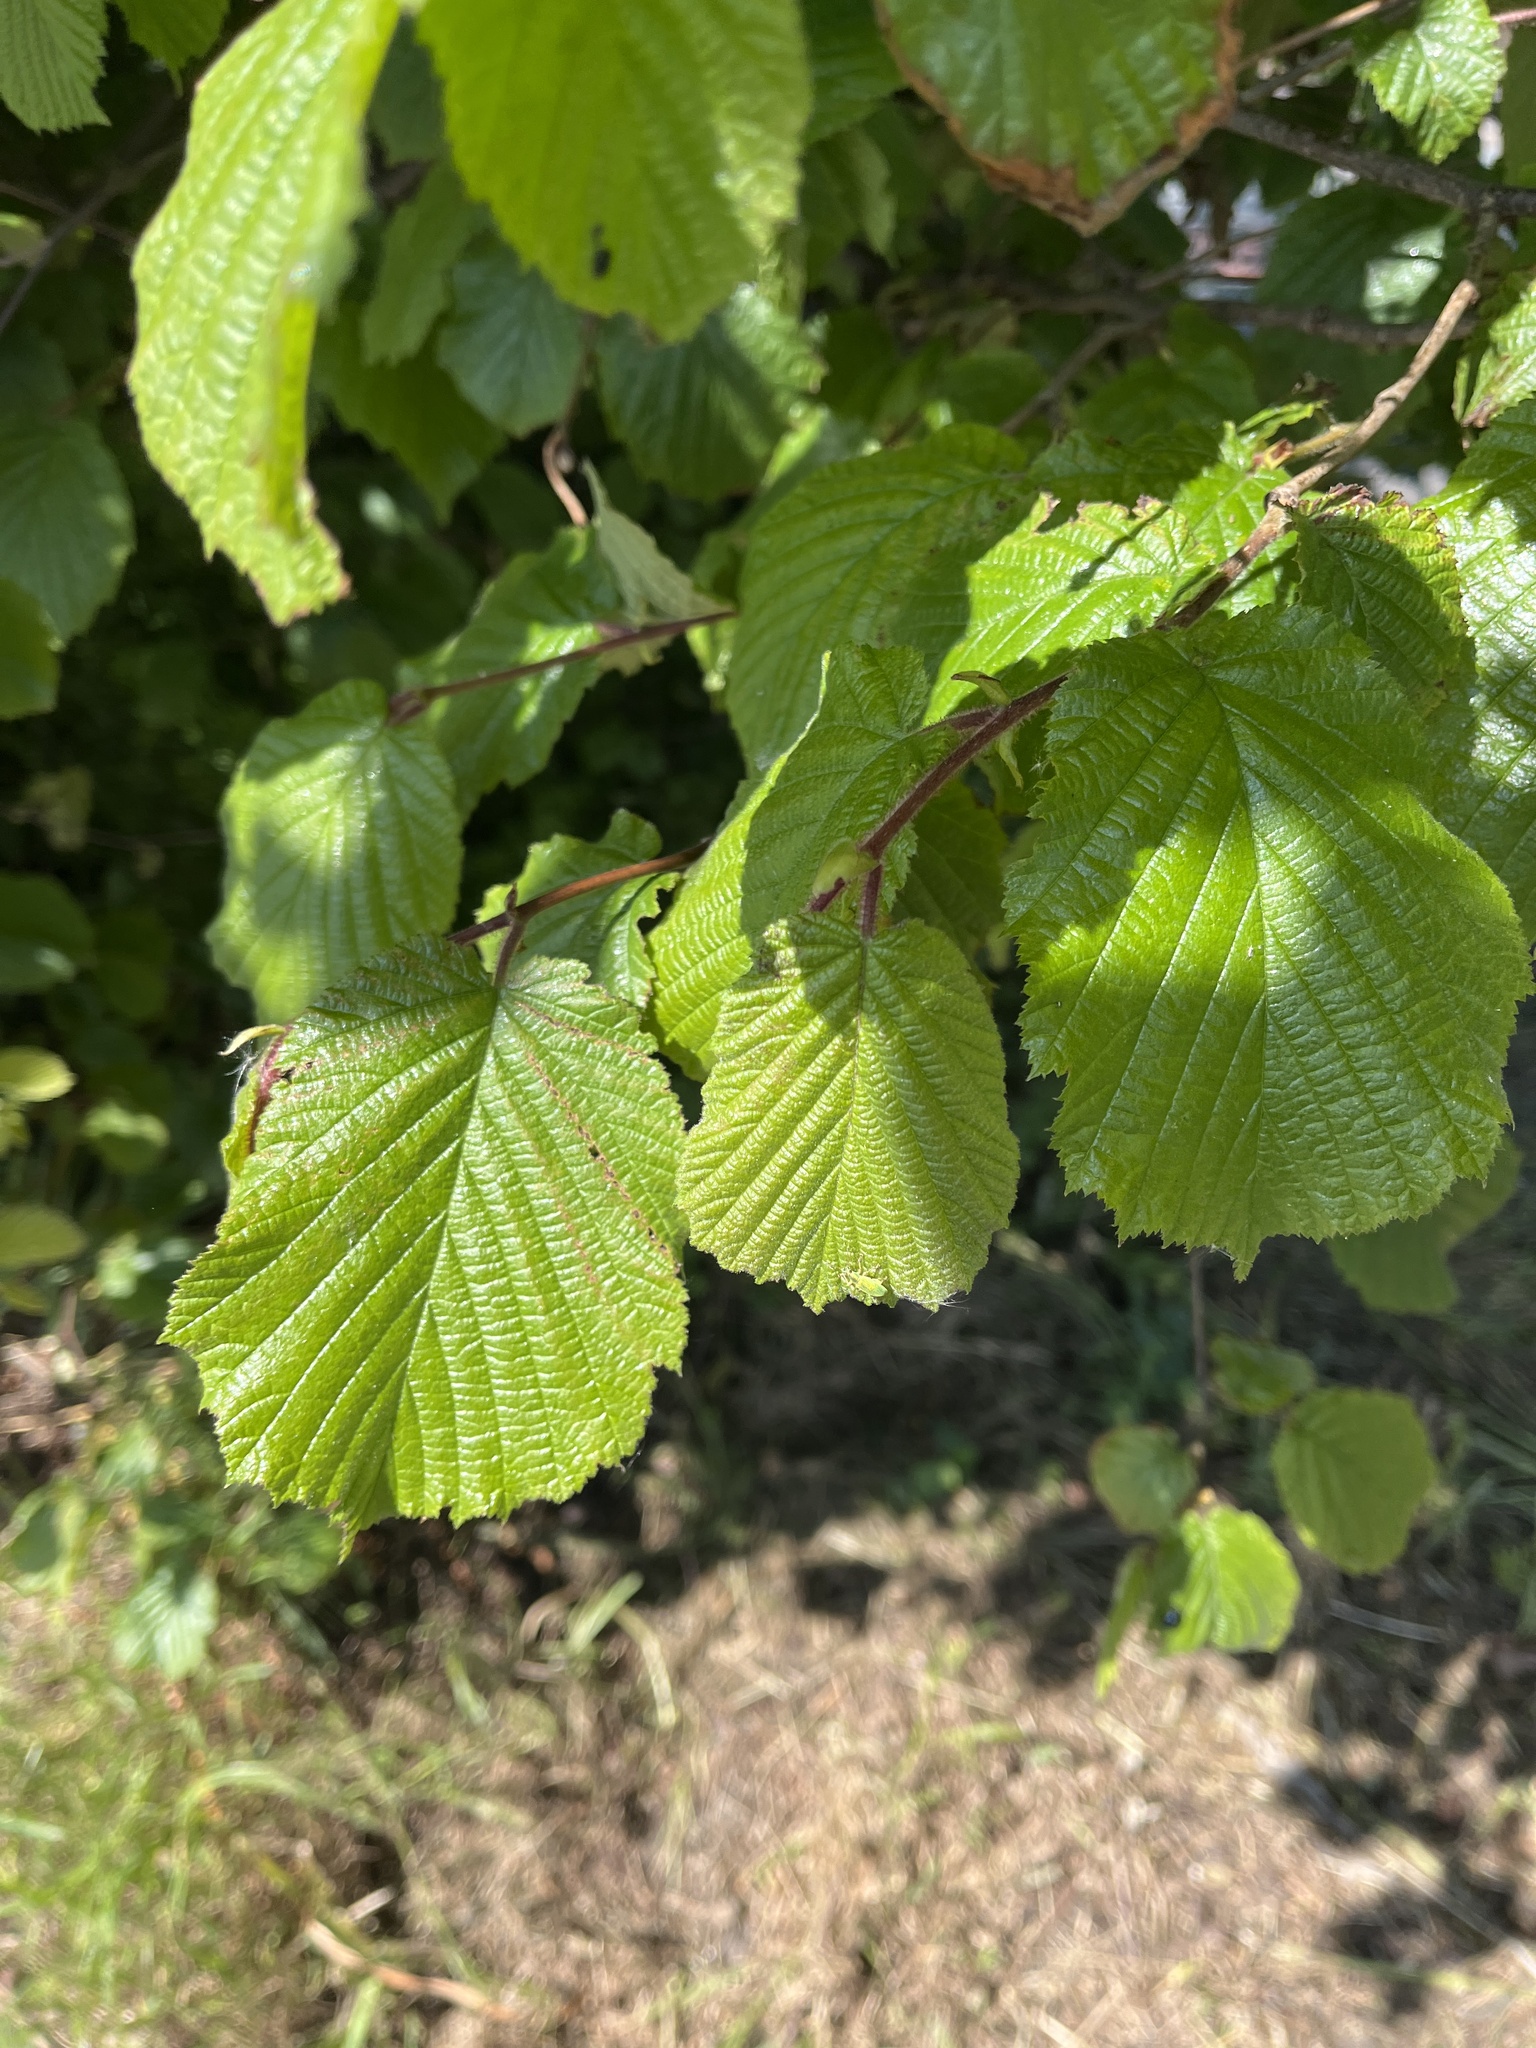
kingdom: Plantae
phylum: Tracheophyta
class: Magnoliopsida
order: Fagales
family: Betulaceae
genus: Corylus
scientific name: Corylus avellana
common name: European hazel
